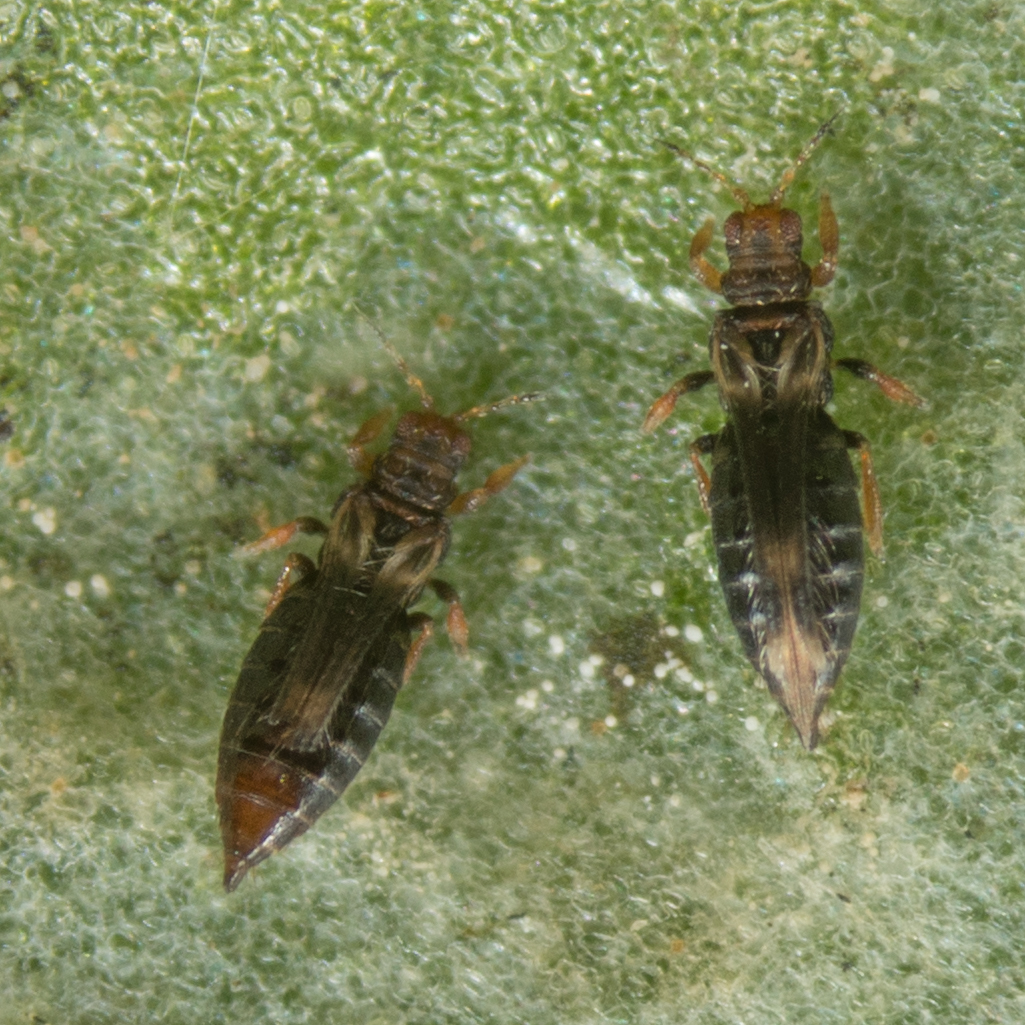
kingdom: Animalia
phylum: Arthropoda
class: Insecta
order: Thysanoptera
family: Thripidae
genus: Hercinothrips
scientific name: Hercinothrips femoralis
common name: Banded greenhouse thrips
